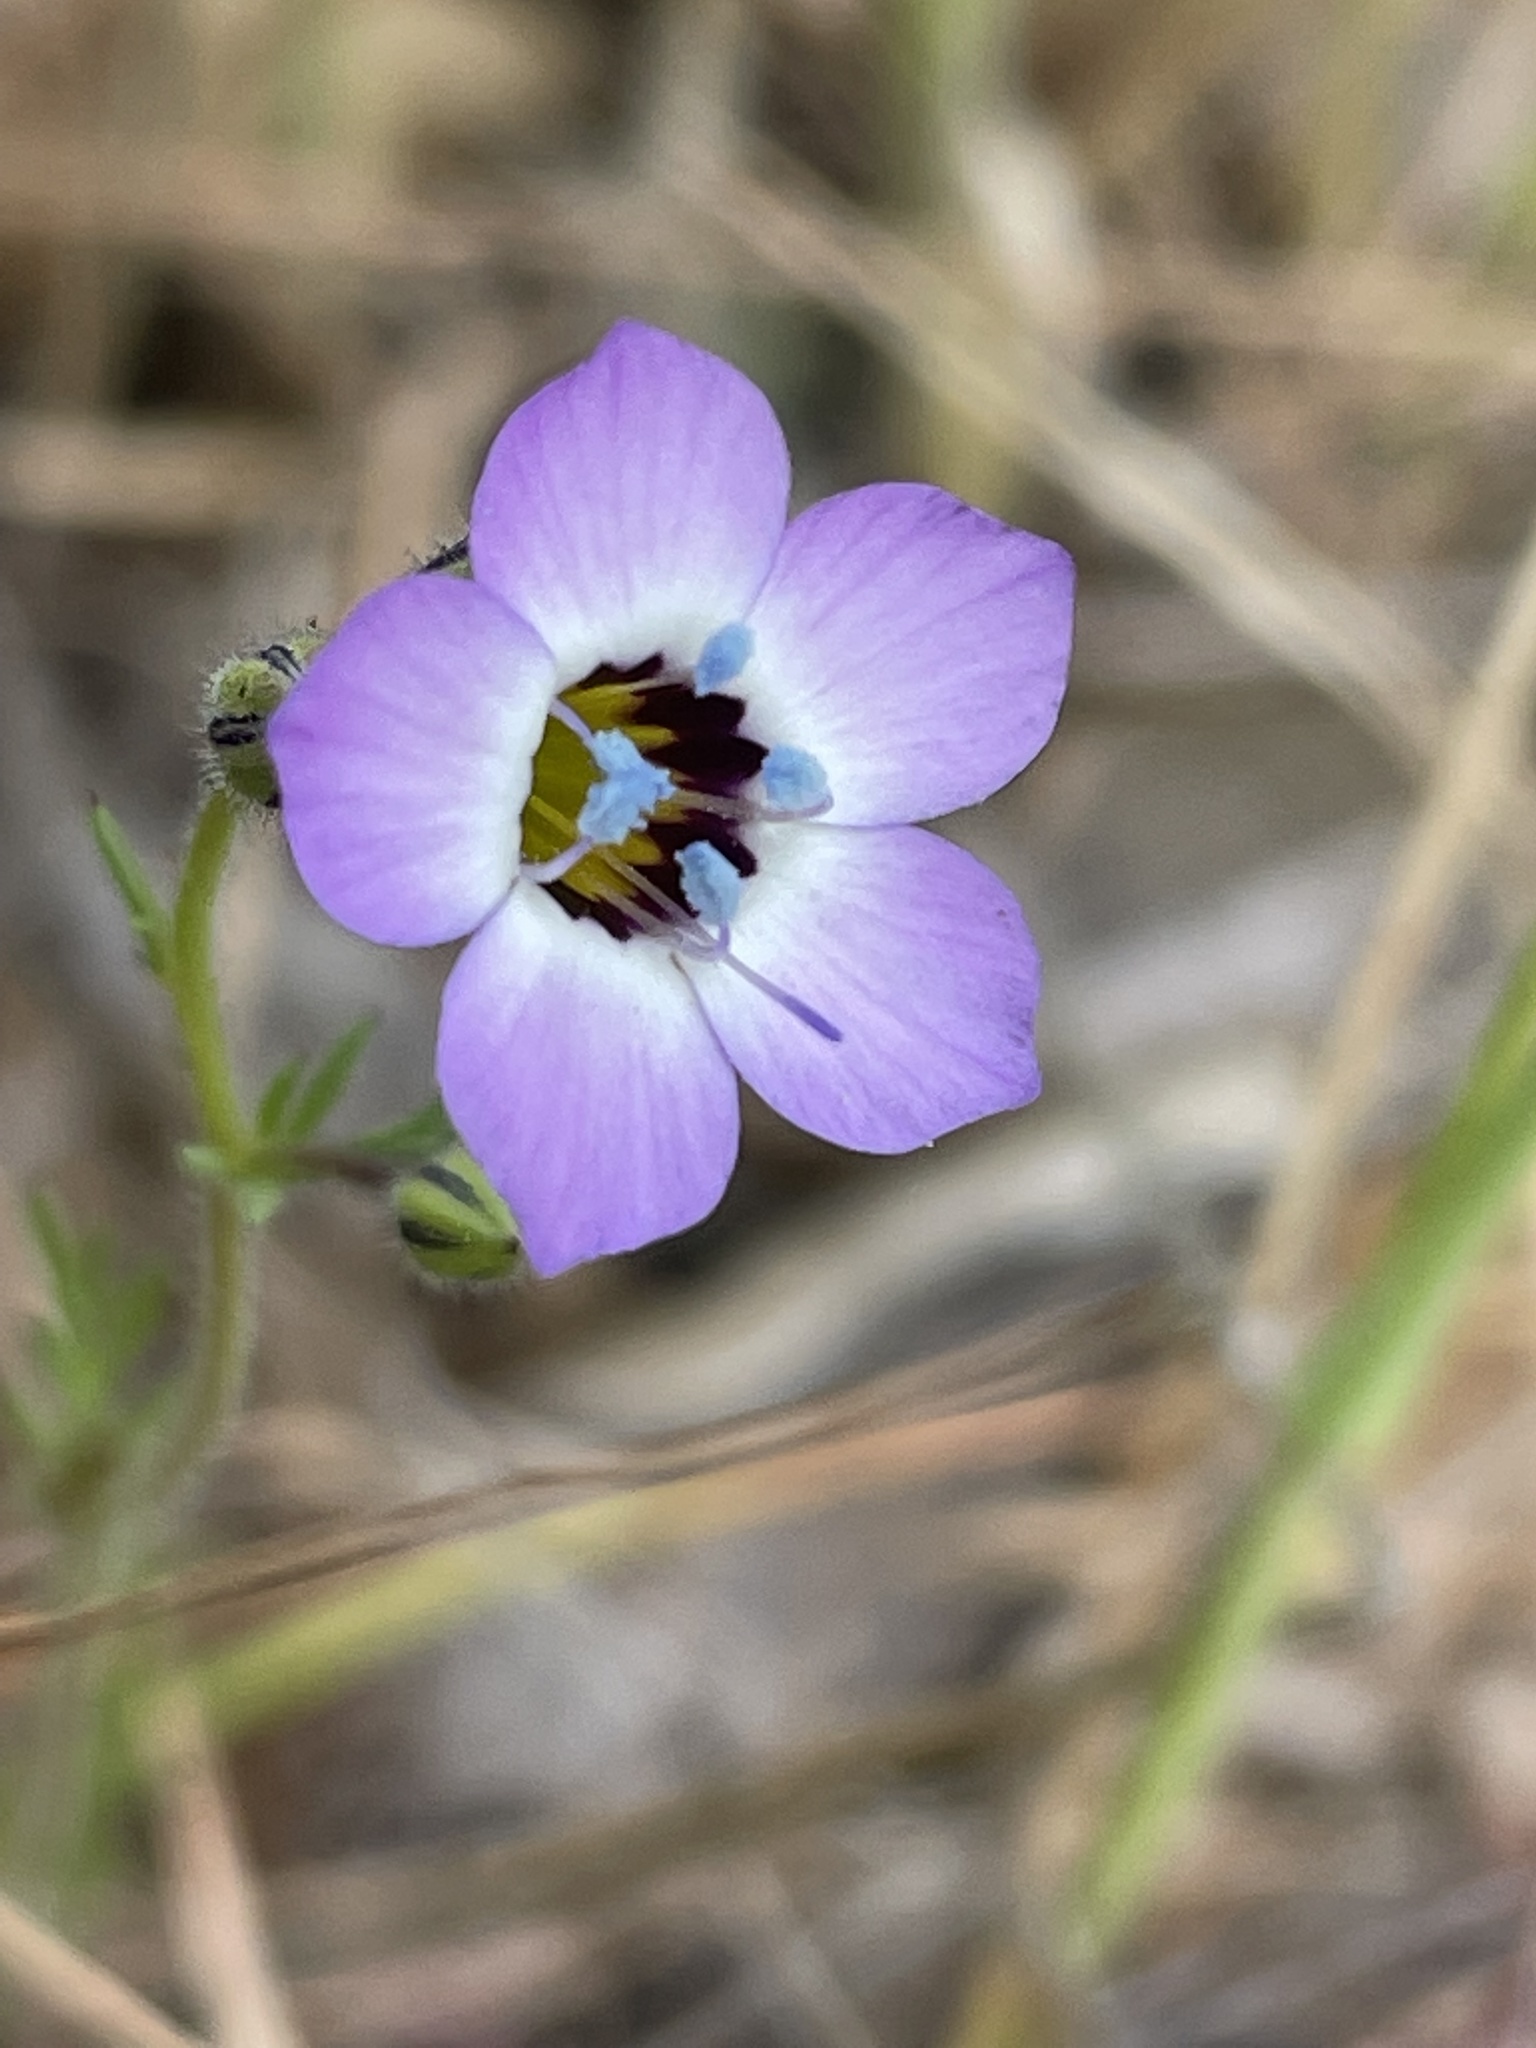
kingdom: Plantae
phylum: Tracheophyta
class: Magnoliopsida
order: Ericales
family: Polemoniaceae
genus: Gilia
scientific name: Gilia tricolor
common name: Bird's-eyes
